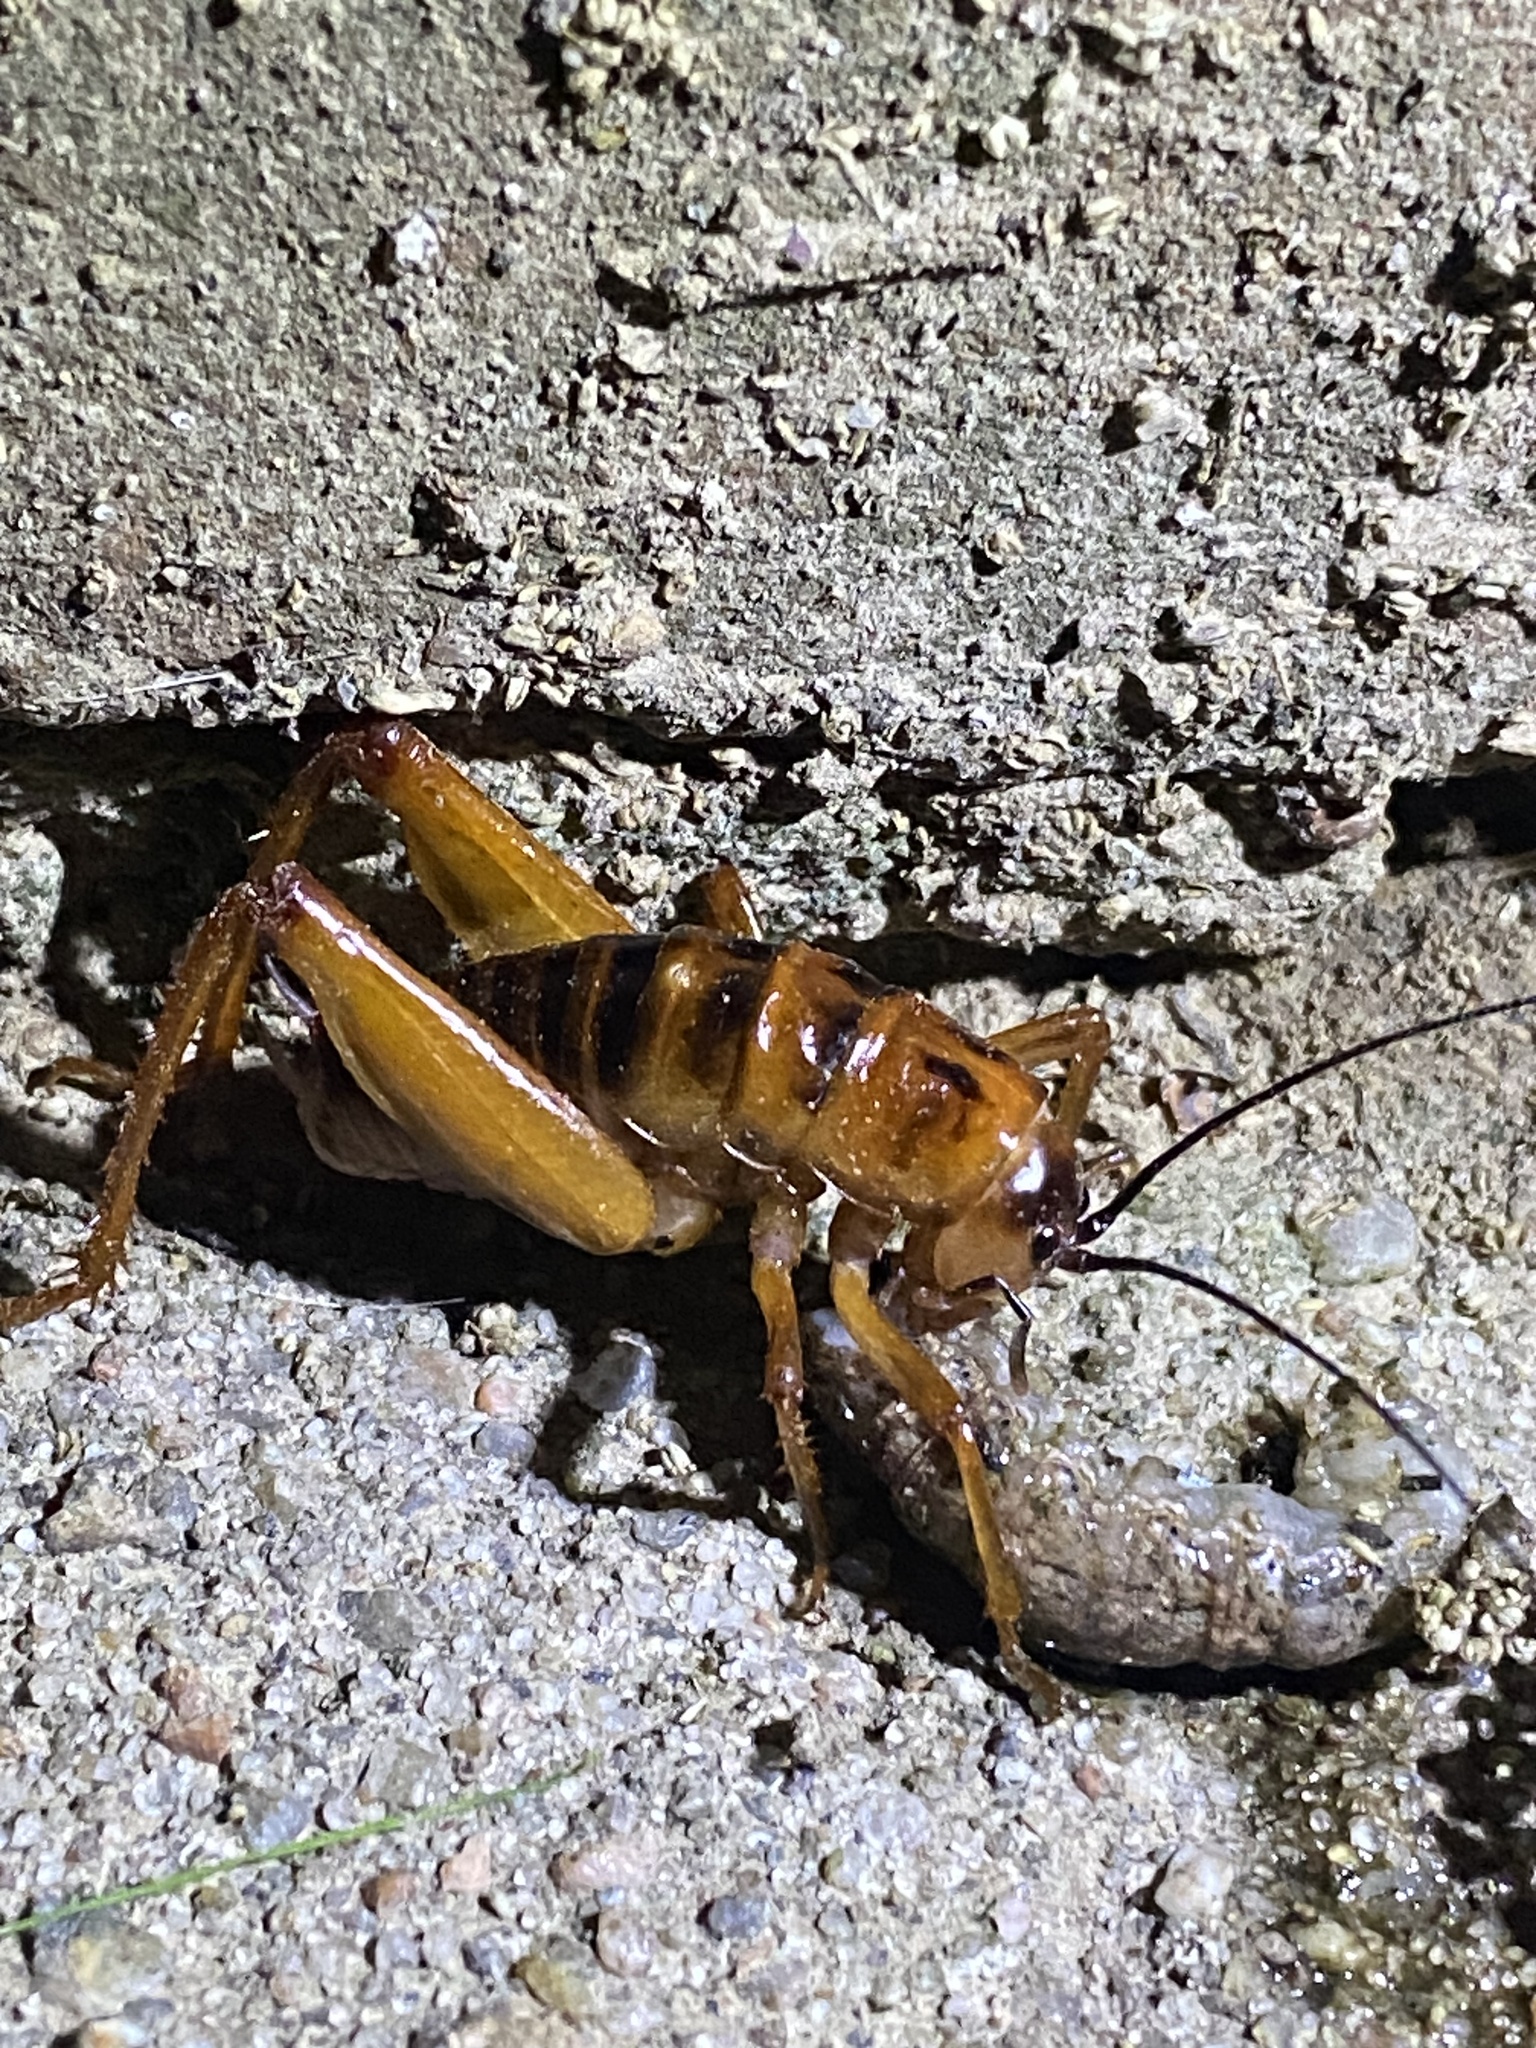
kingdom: Animalia
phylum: Arthropoda
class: Insecta
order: Orthoptera
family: Rhaphidophoridae
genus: Udeopsylla
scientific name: Udeopsylla robusta
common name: Robust camel cricket
